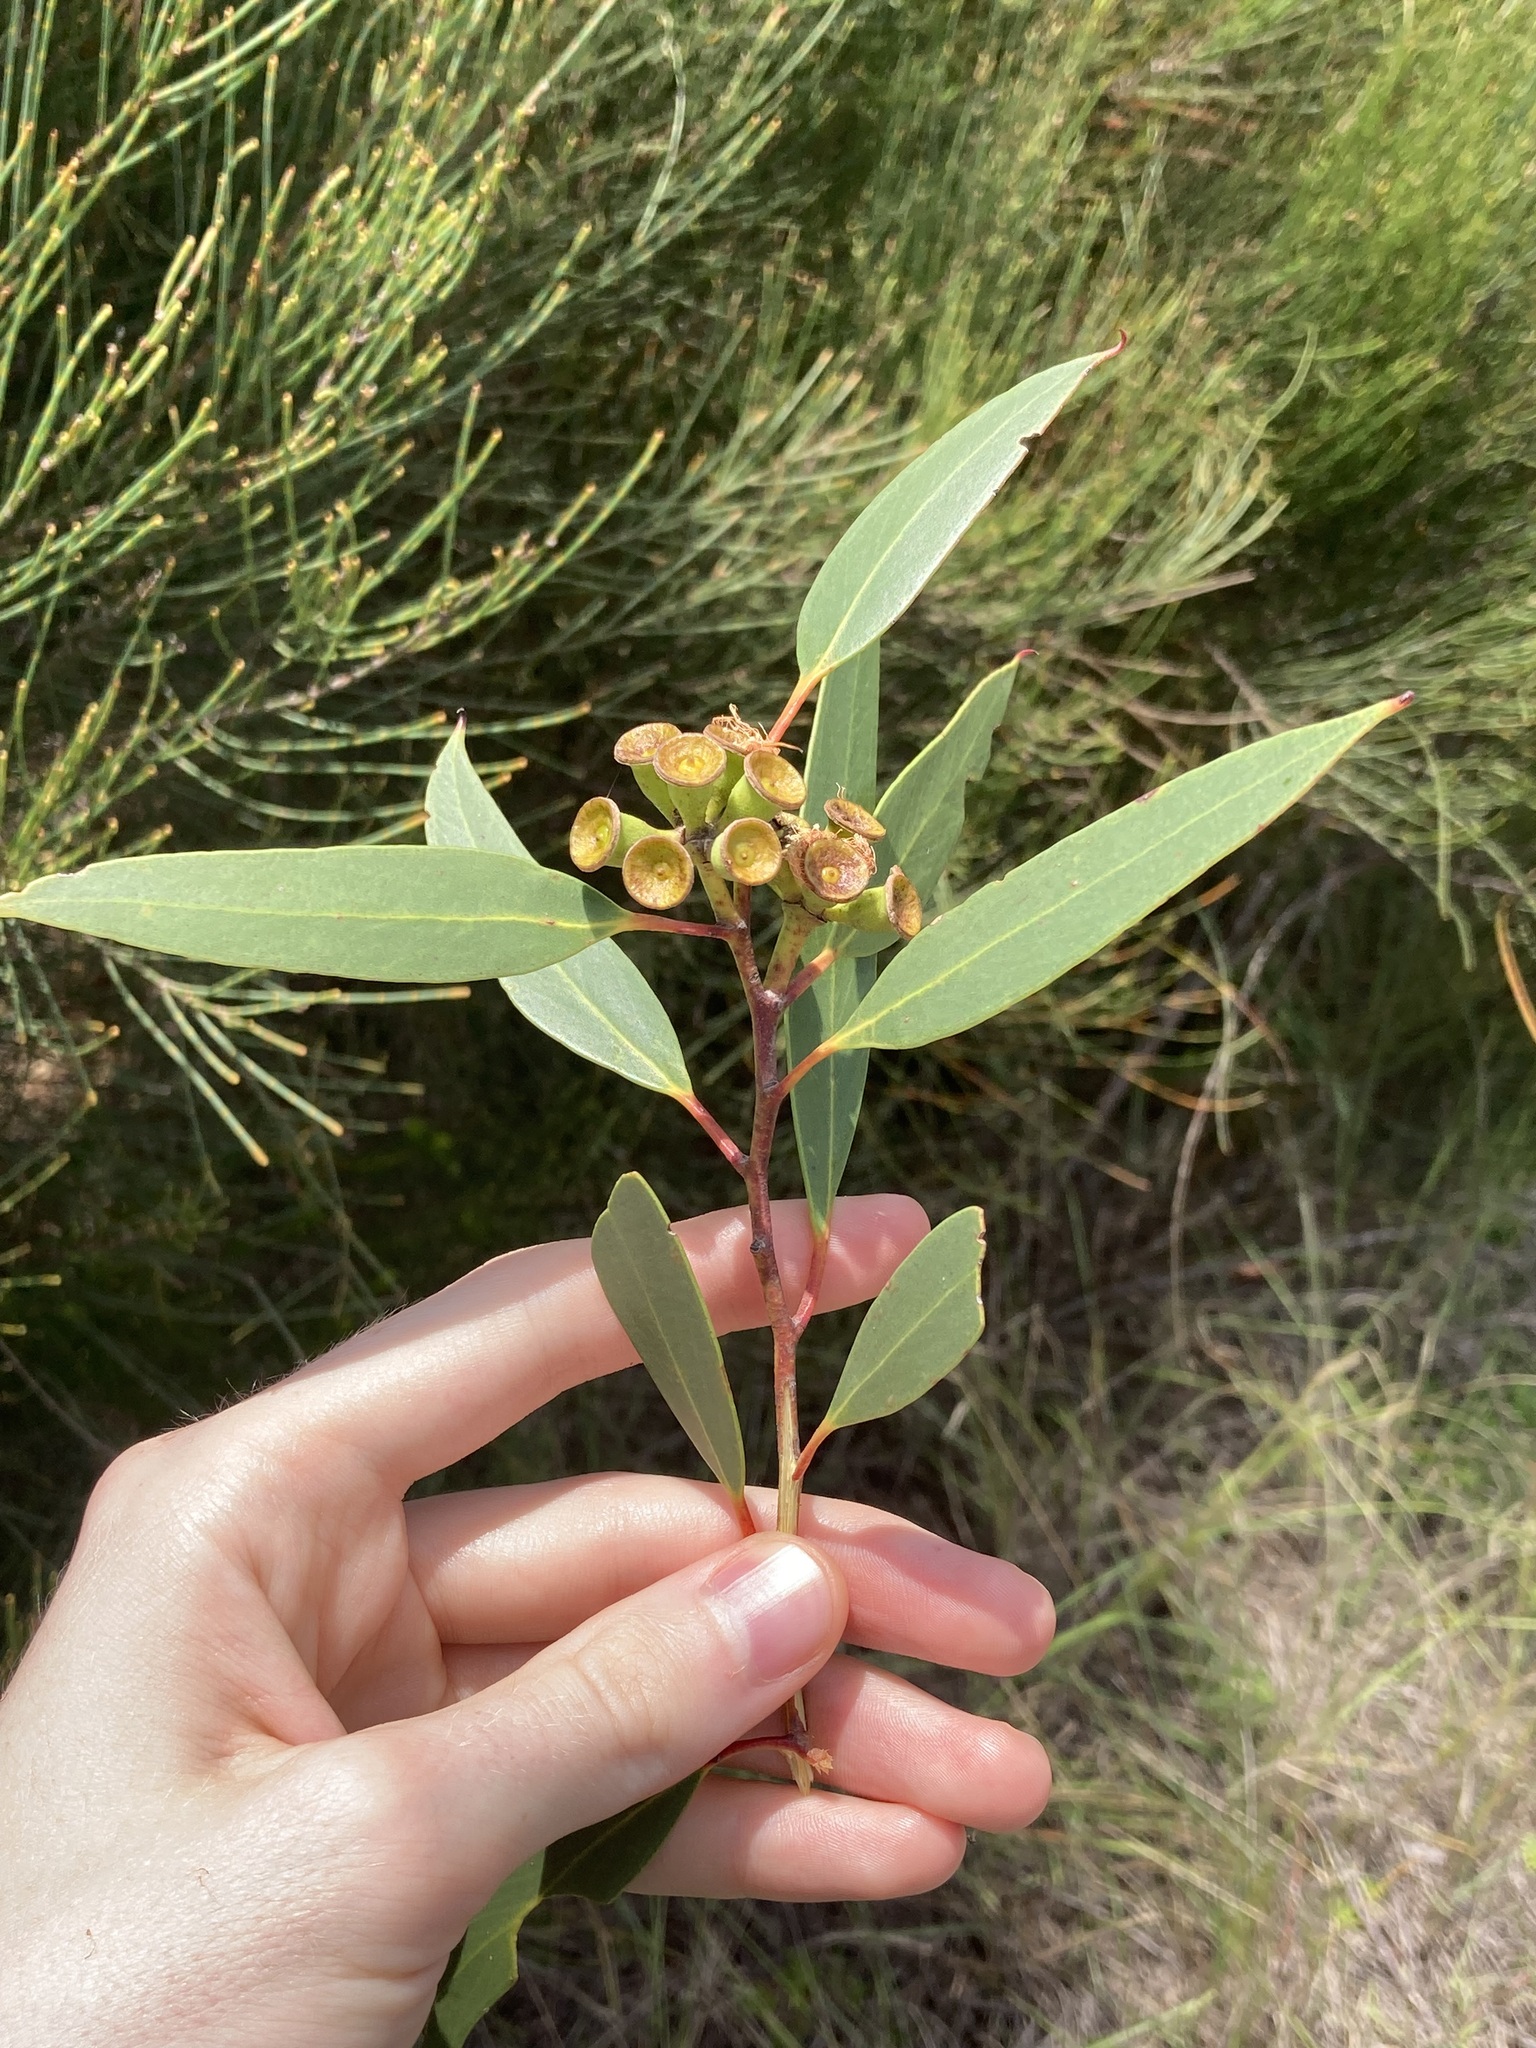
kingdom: Plantae
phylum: Tracheophyta
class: Magnoliopsida
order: Myrtales
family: Myrtaceae
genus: Eucalyptus
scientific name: Eucalyptus burgessiana
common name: Falconbridge mallee-ash
